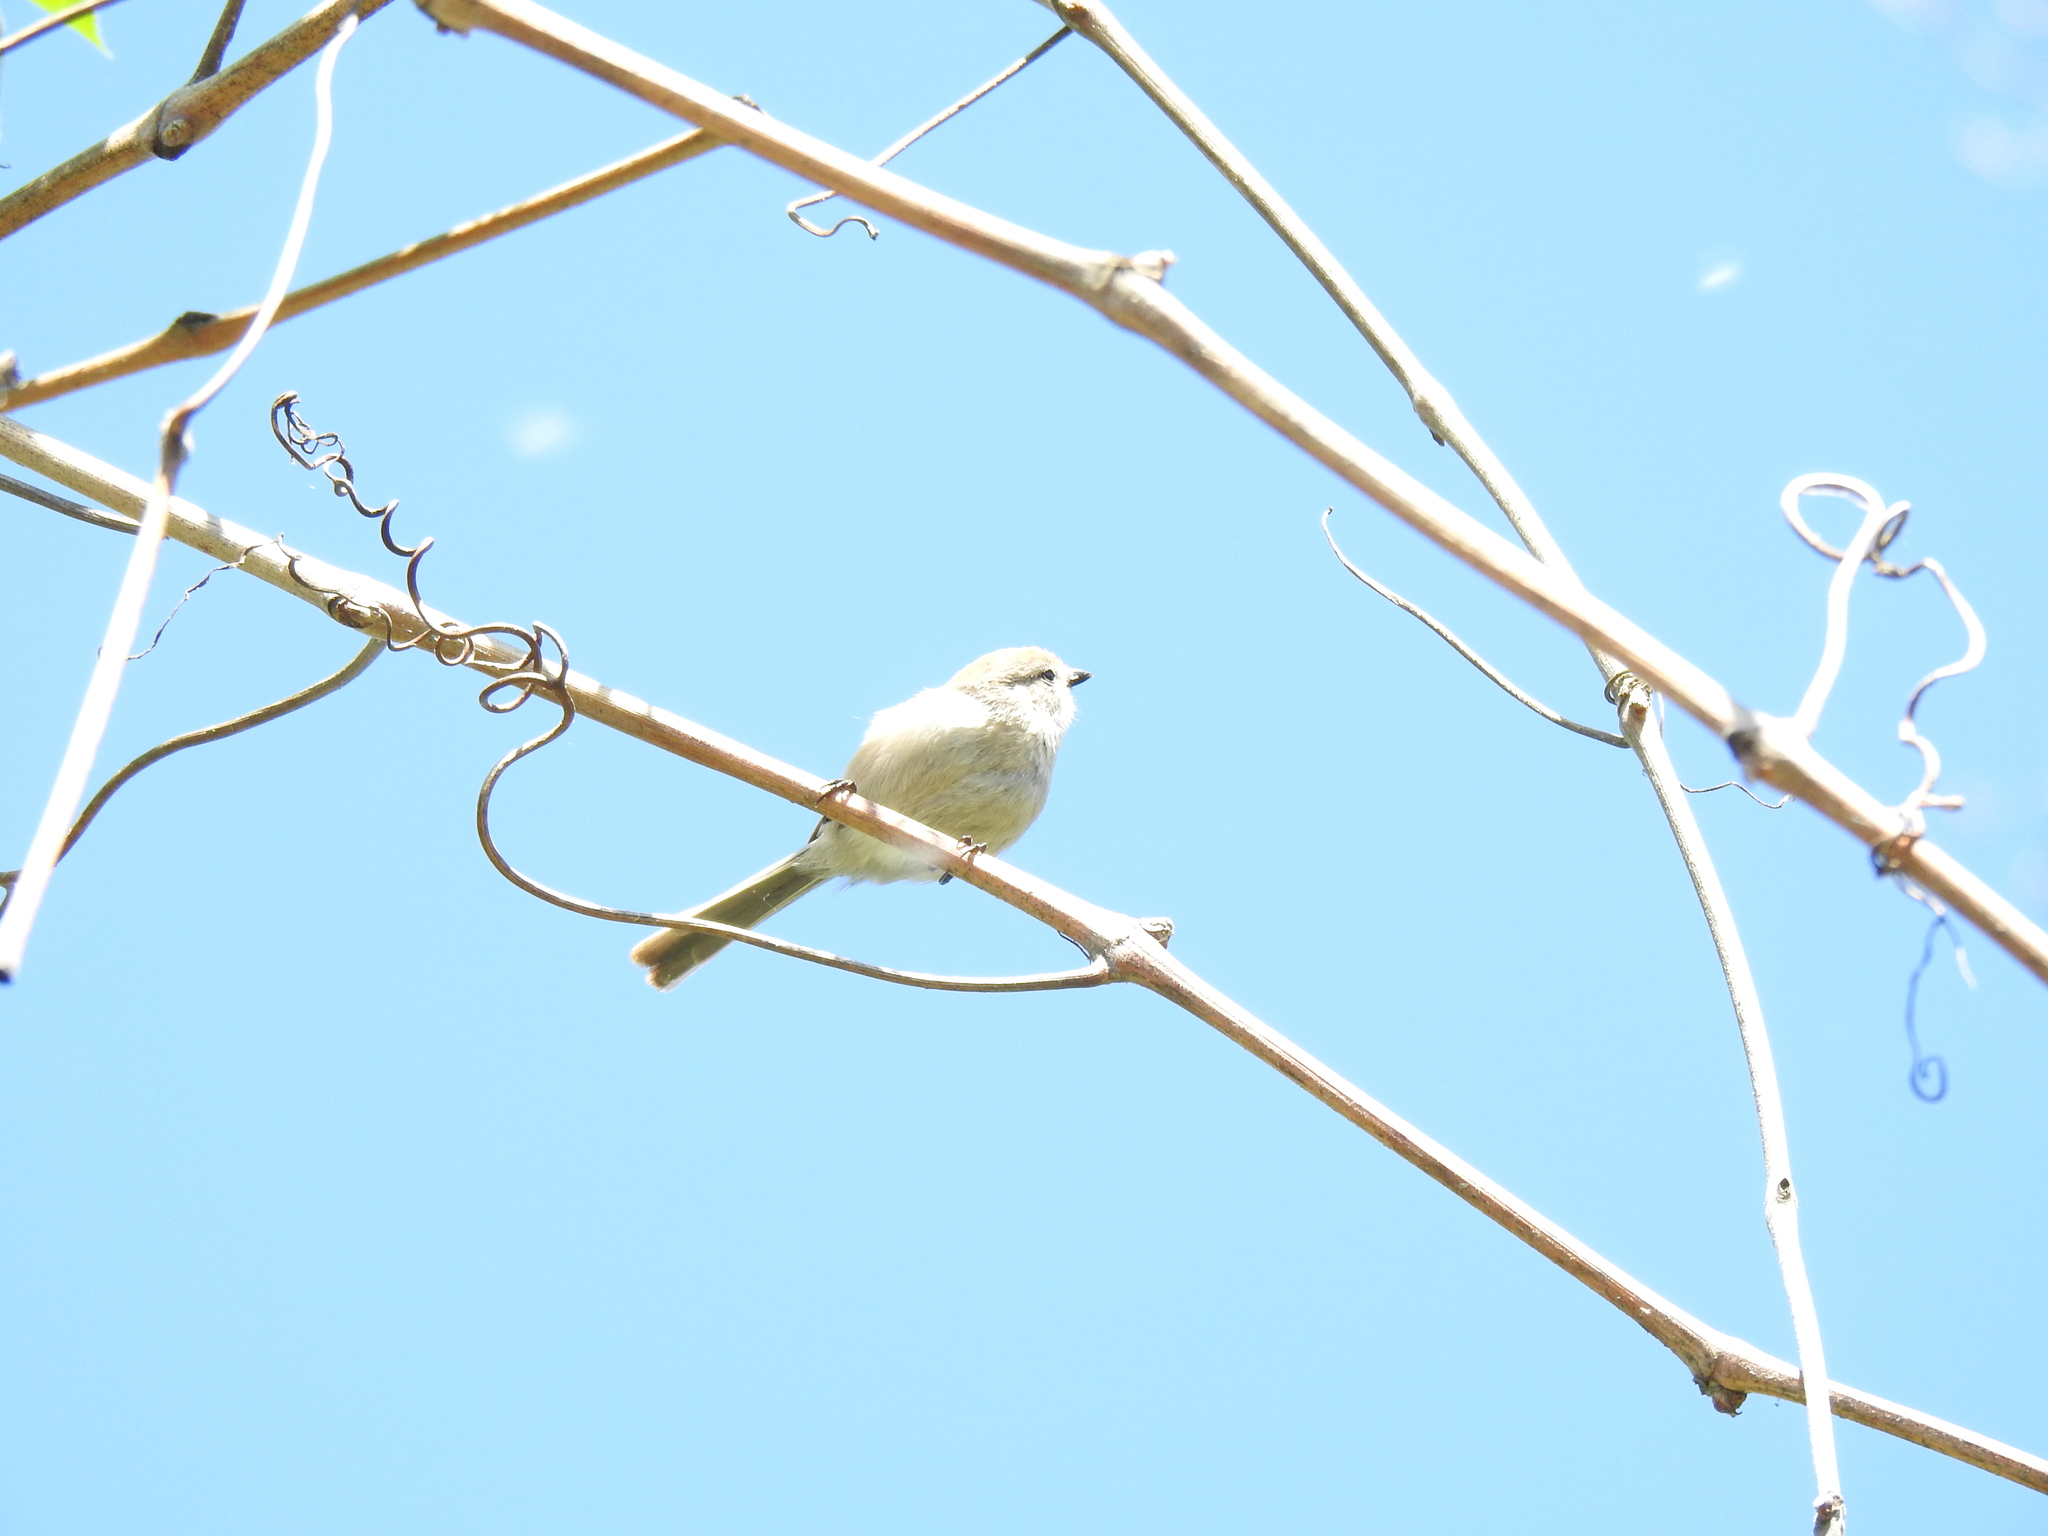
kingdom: Animalia
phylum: Chordata
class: Aves
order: Passeriformes
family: Aegithalidae
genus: Psaltriparus
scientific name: Psaltriparus minimus
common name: American bushtit
